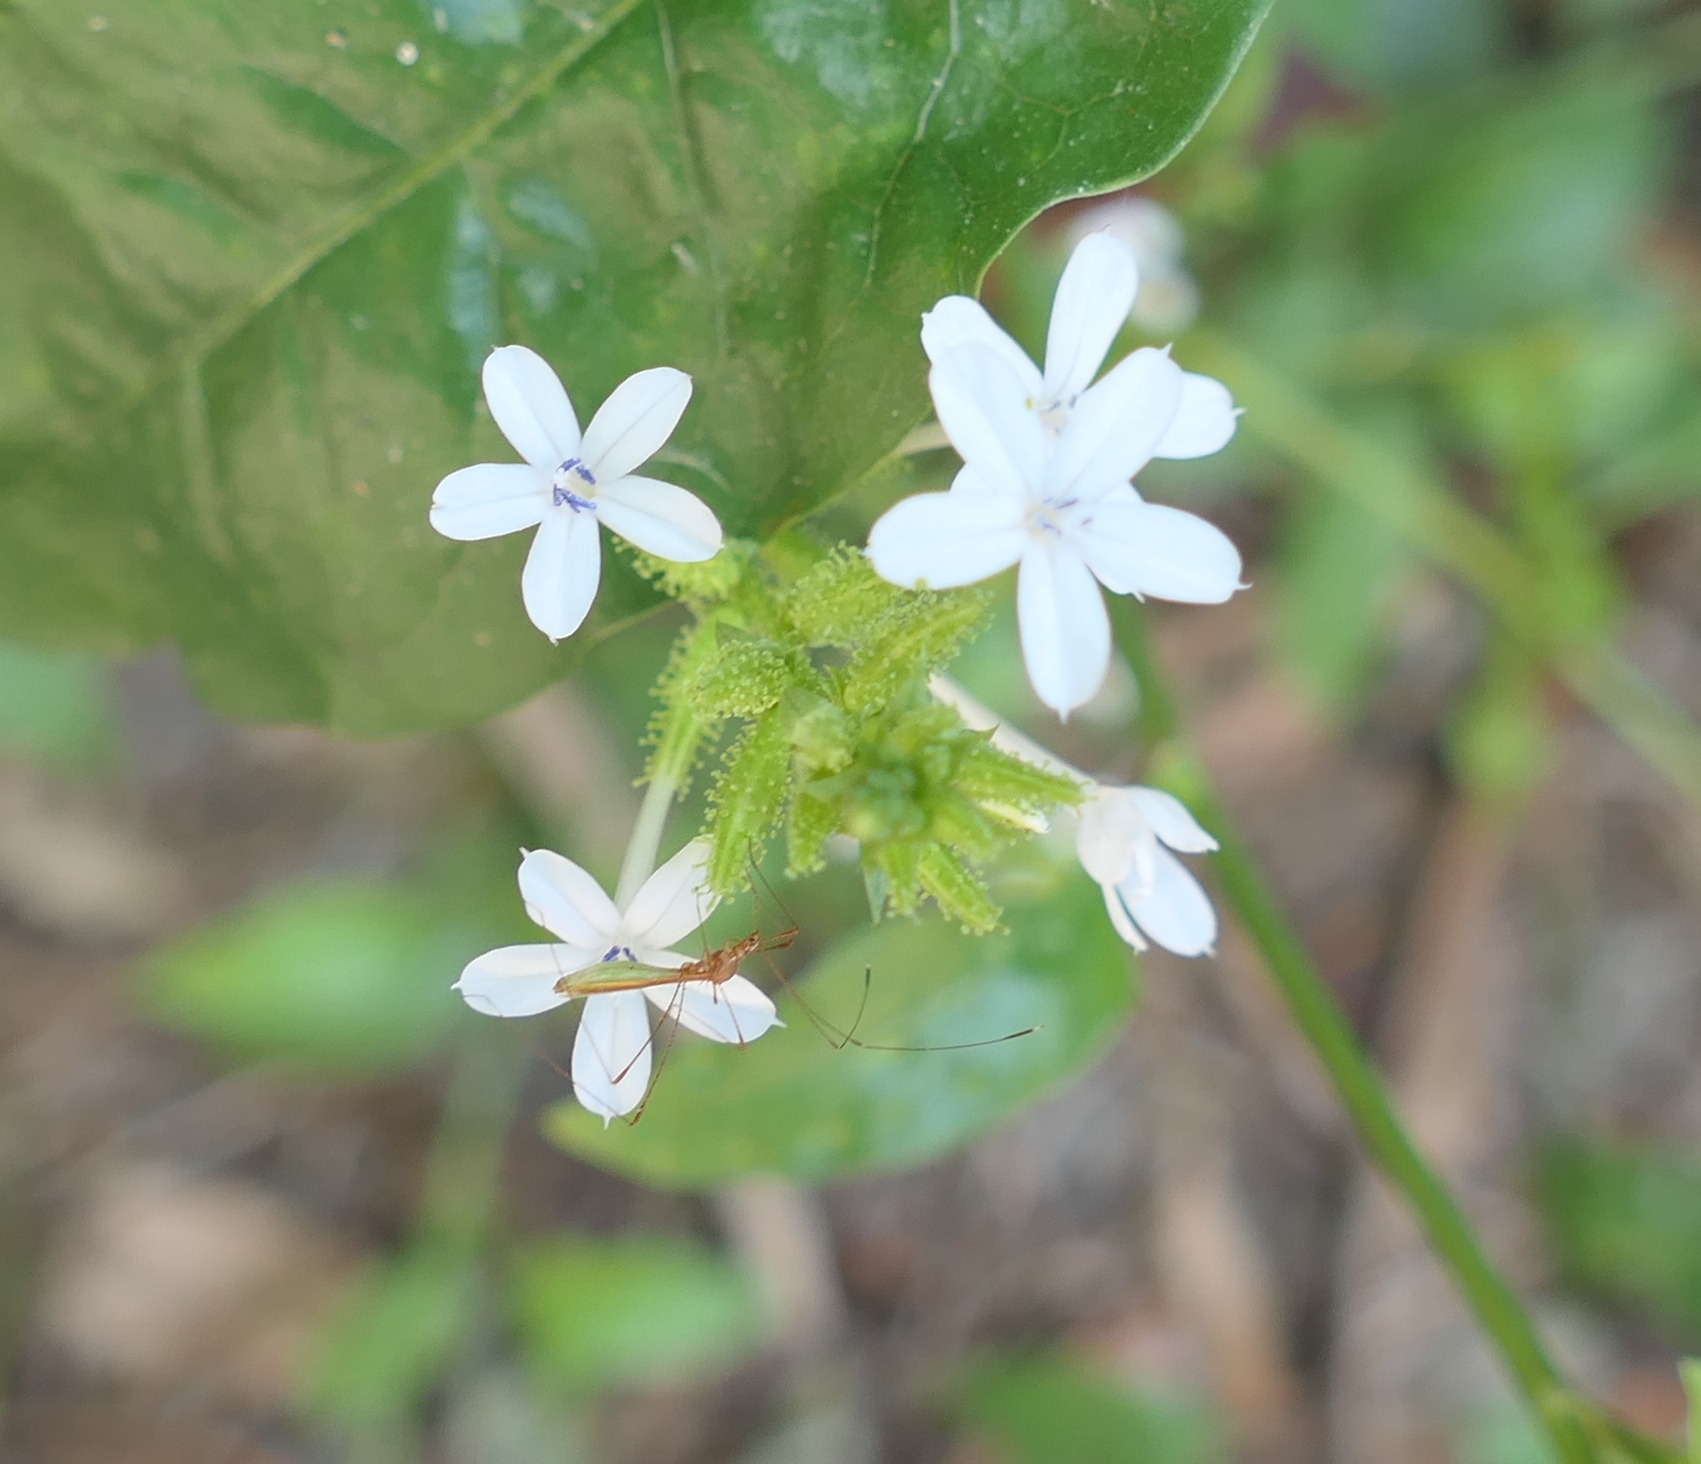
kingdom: Plantae
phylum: Tracheophyta
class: Magnoliopsida
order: Caryophyllales
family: Plumbaginaceae
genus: Plumbago
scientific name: Plumbago zeylanica
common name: Doctorbush
